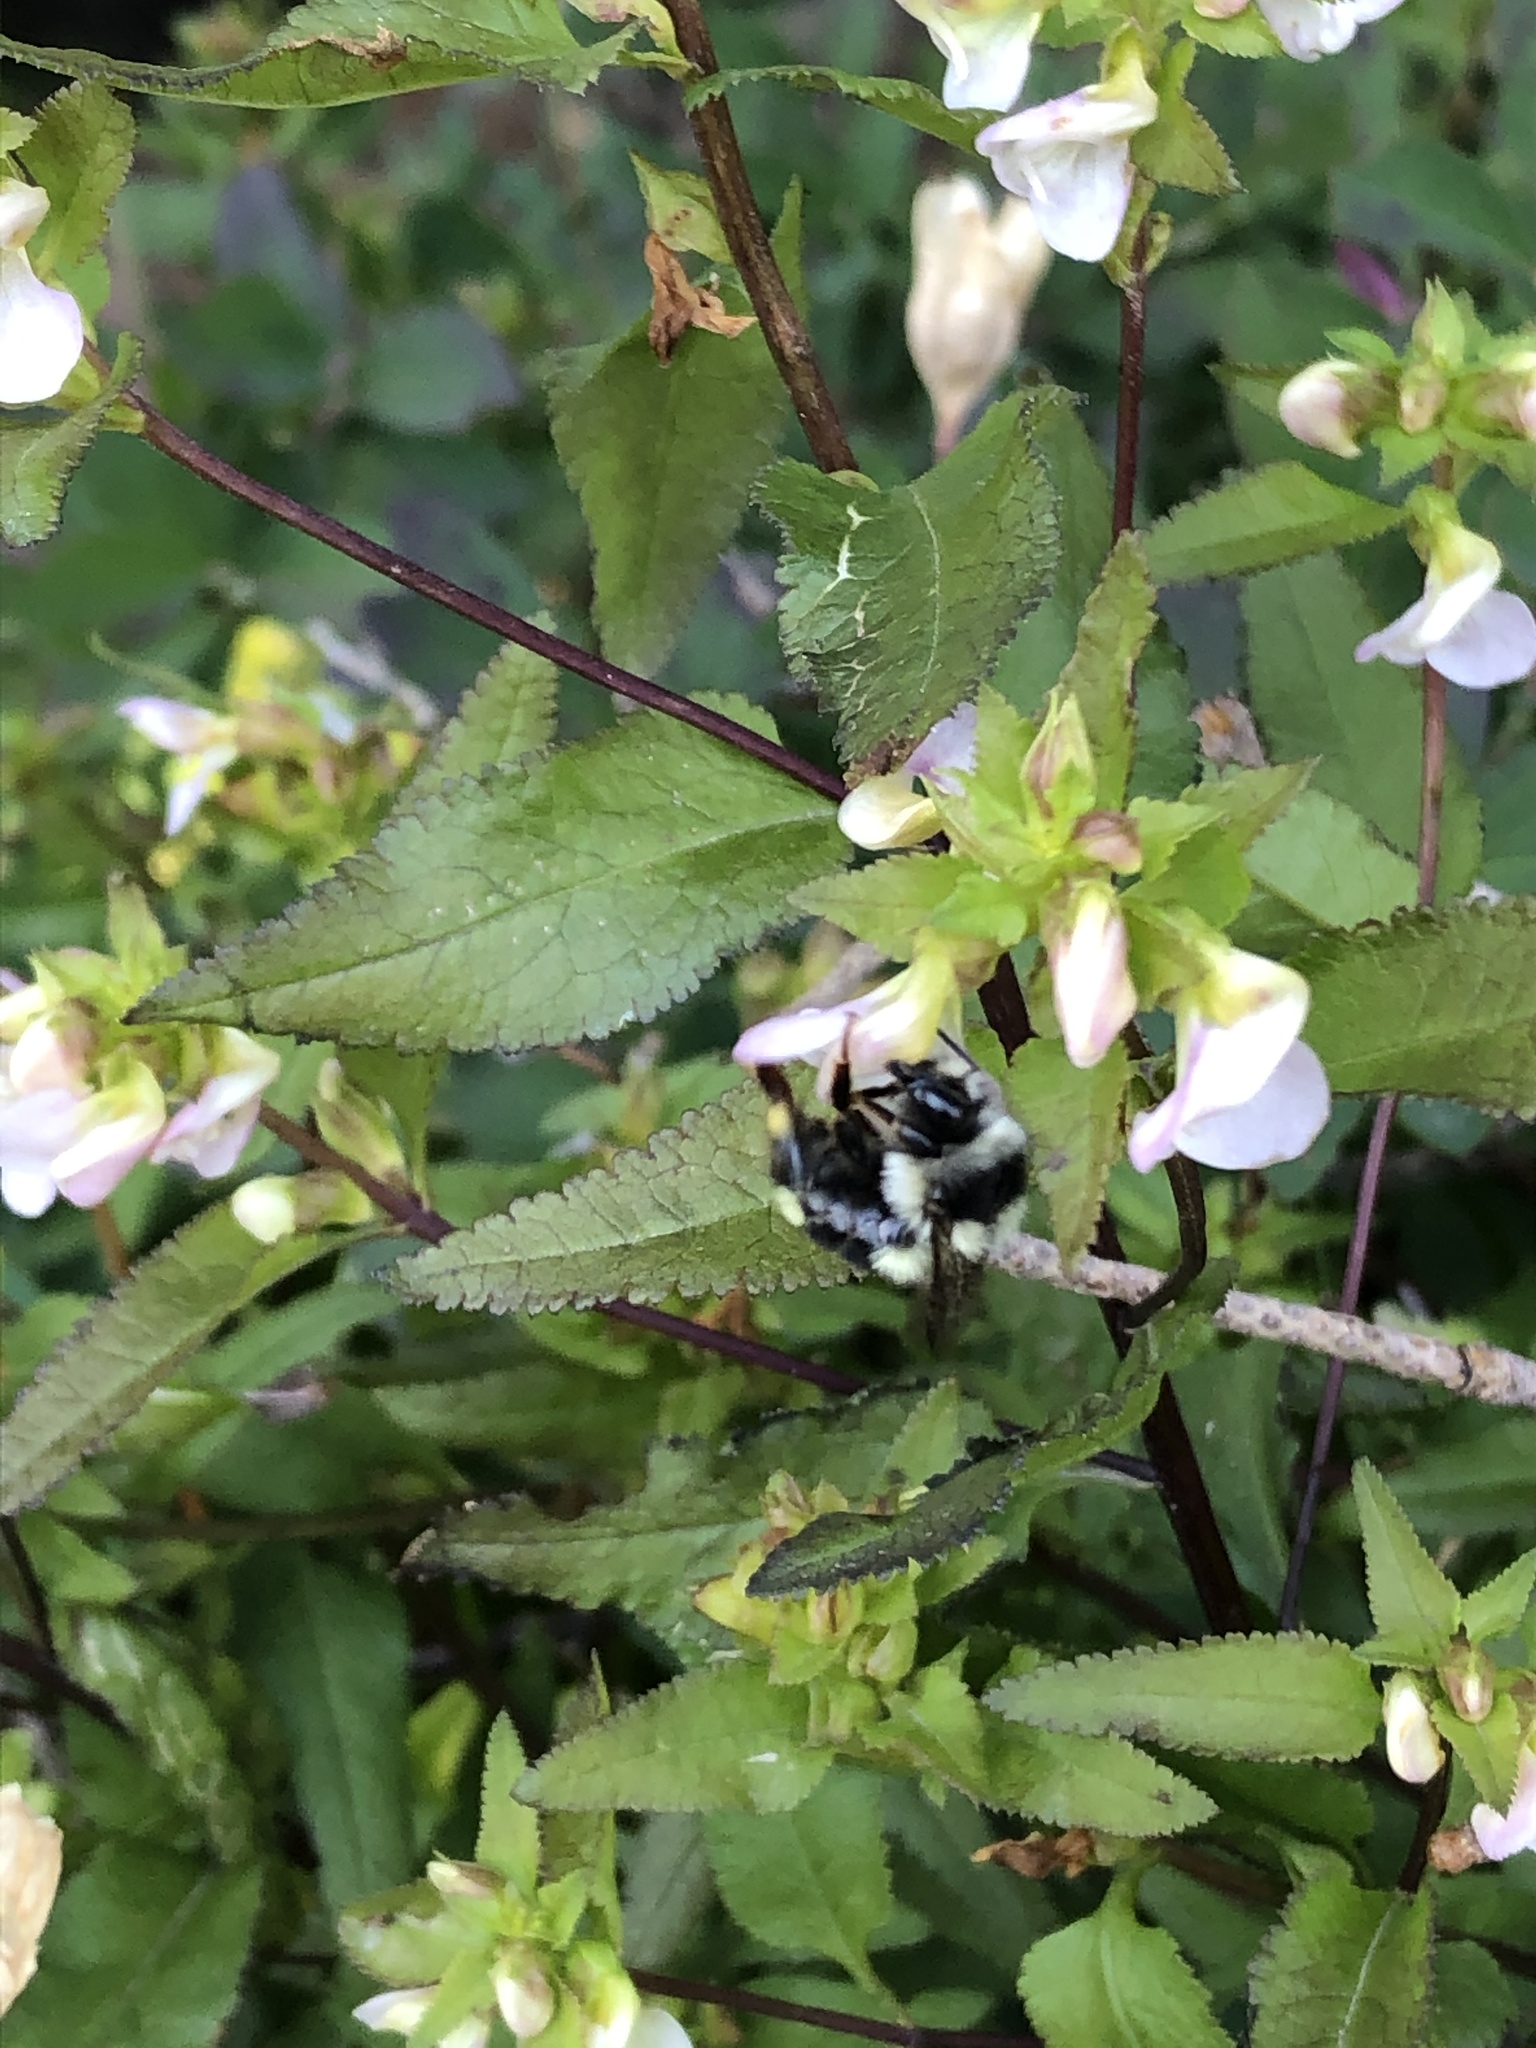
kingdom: Animalia
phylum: Arthropoda
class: Insecta
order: Hymenoptera
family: Apidae
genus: Bombus
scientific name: Bombus vancouverensis
